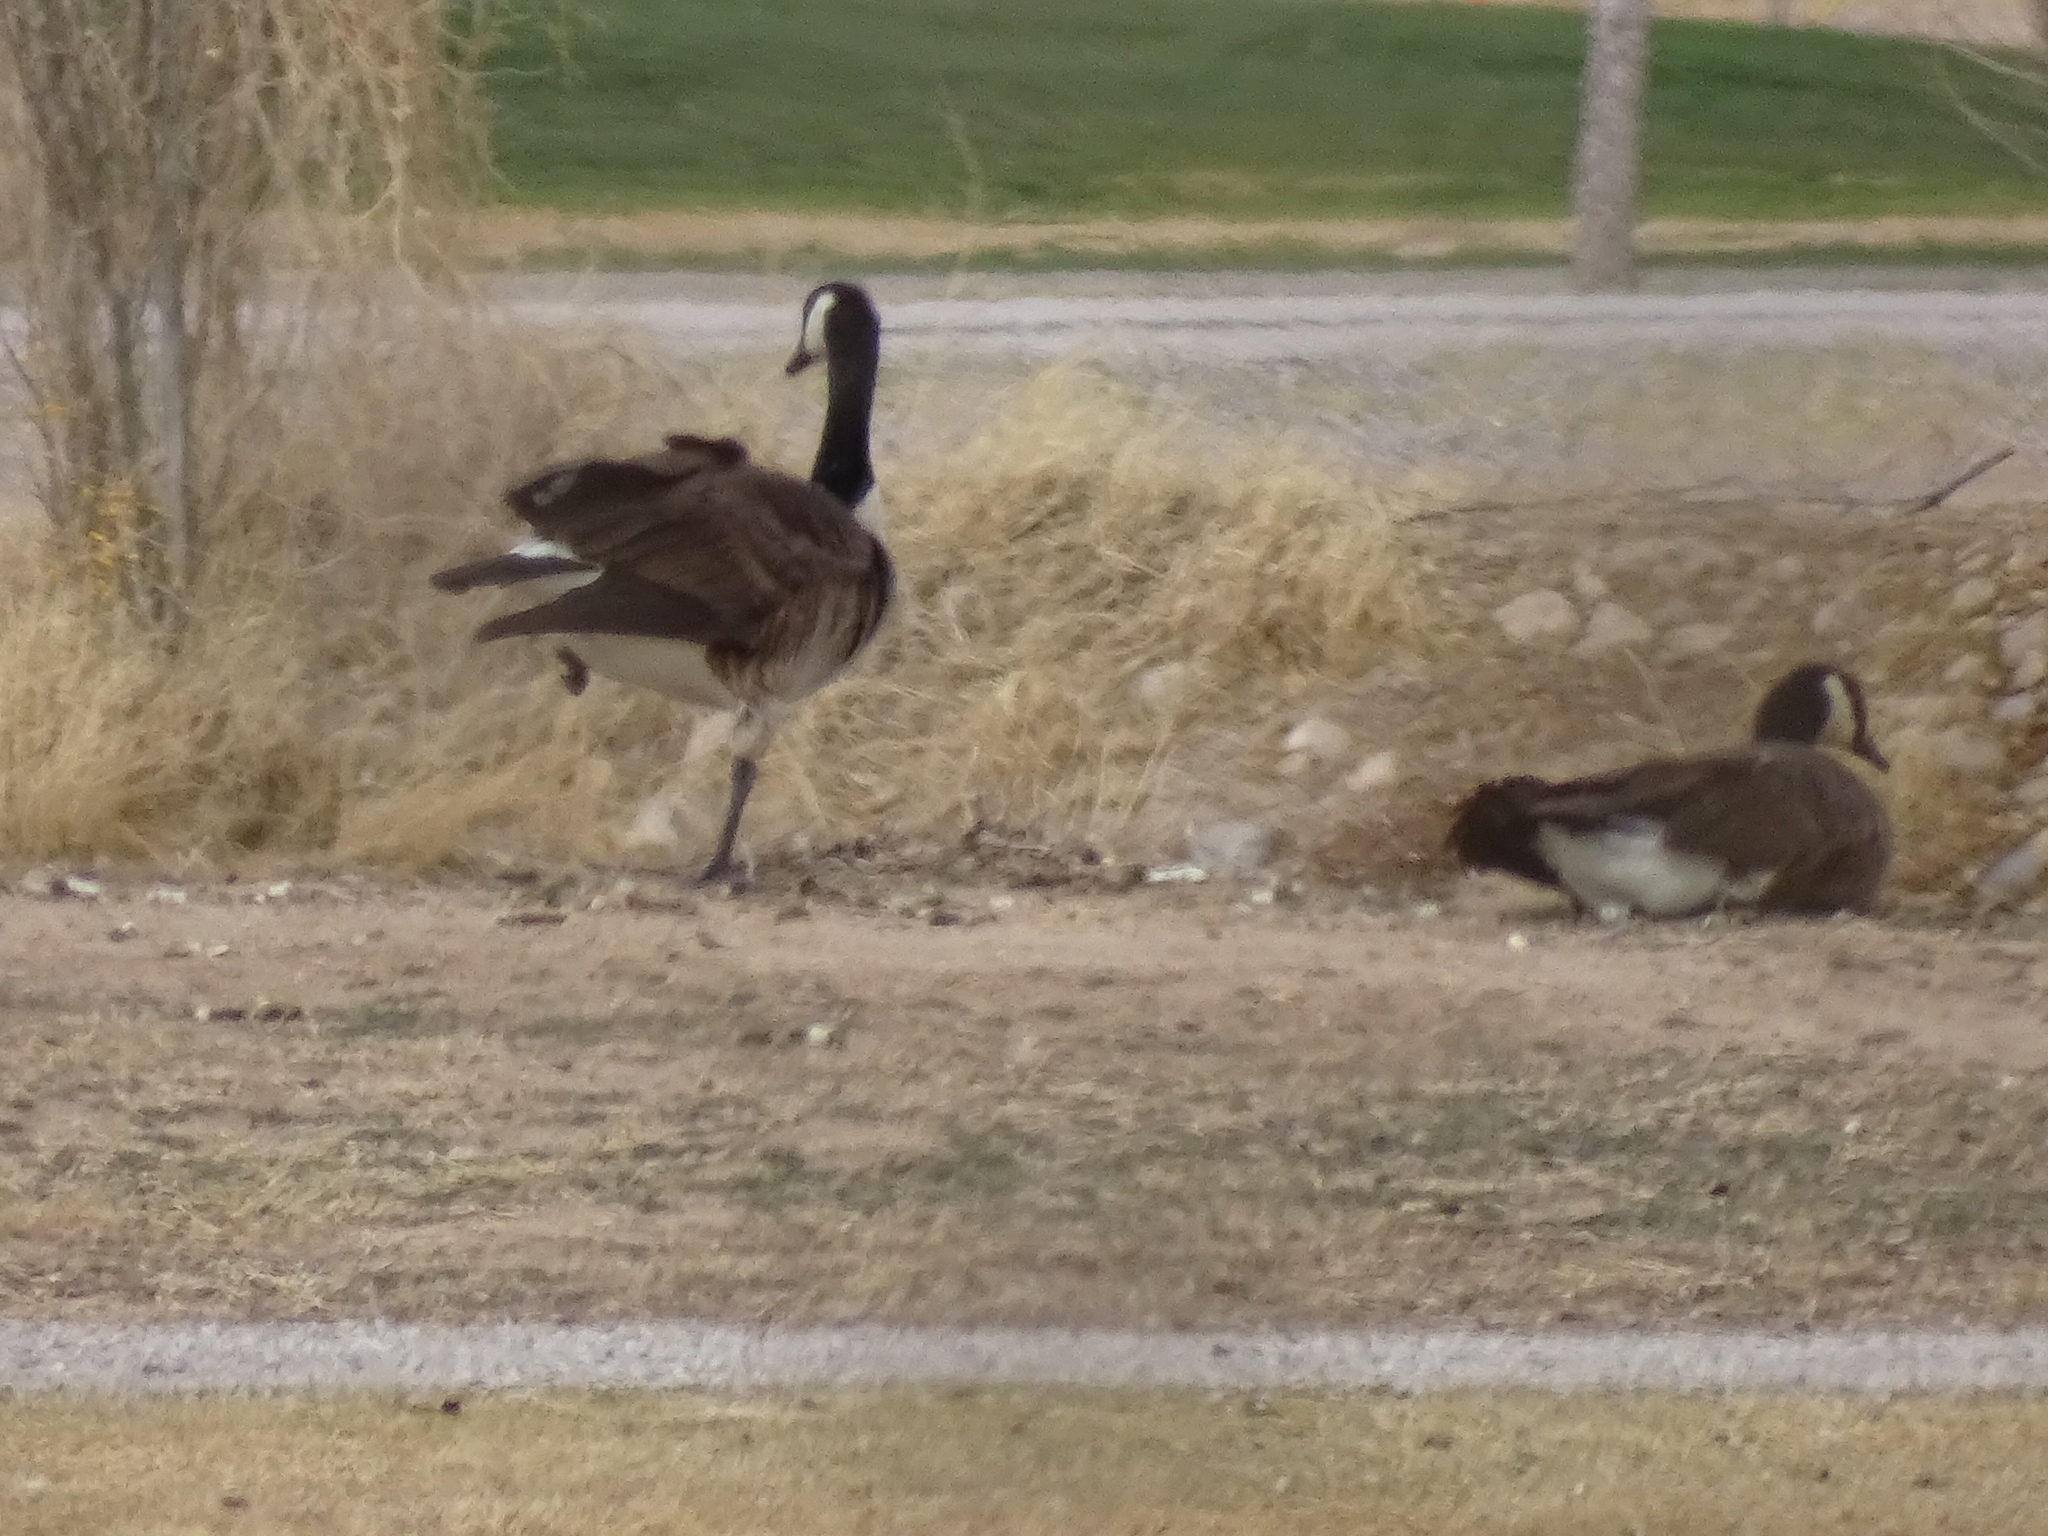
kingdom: Animalia
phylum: Chordata
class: Aves
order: Anseriformes
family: Anatidae
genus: Branta
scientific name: Branta canadensis
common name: Canada goose
